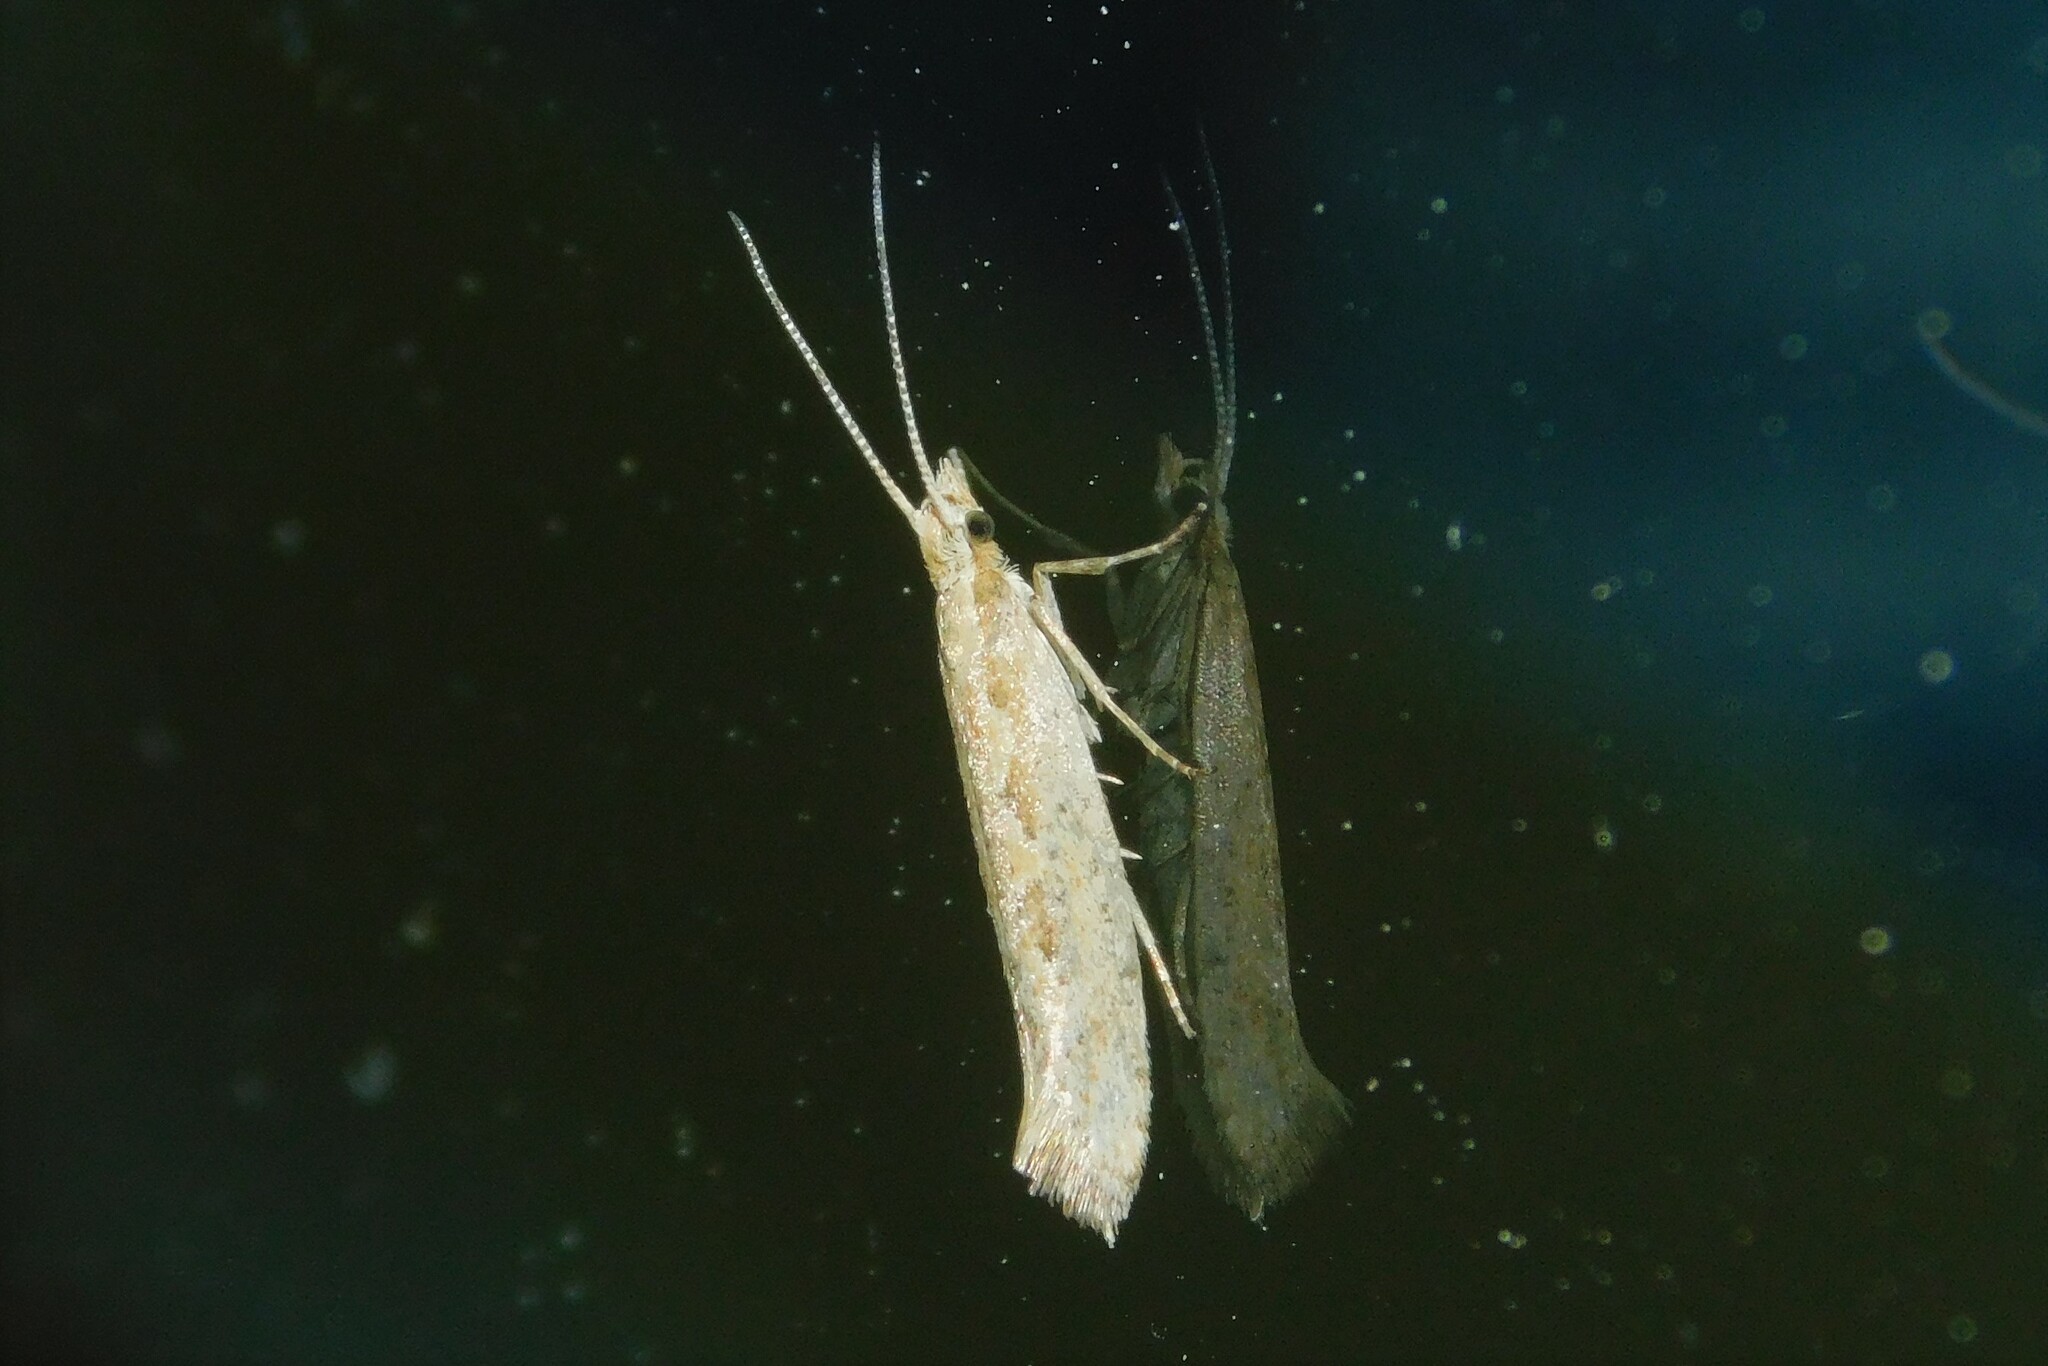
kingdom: Animalia
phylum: Arthropoda
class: Insecta
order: Lepidoptera
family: Plutellidae
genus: Plutella
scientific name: Plutella xylostella
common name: Diamond-back moth
